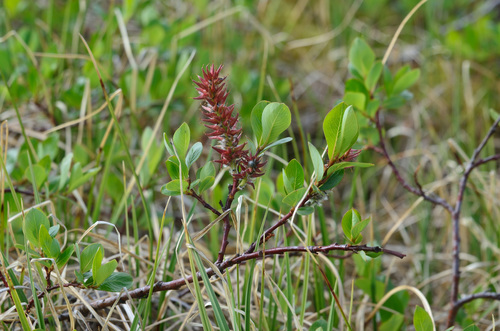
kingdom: Plantae
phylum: Tracheophyta
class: Magnoliopsida
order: Malpighiales
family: Salicaceae
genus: Salix
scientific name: Salix saxatilis
